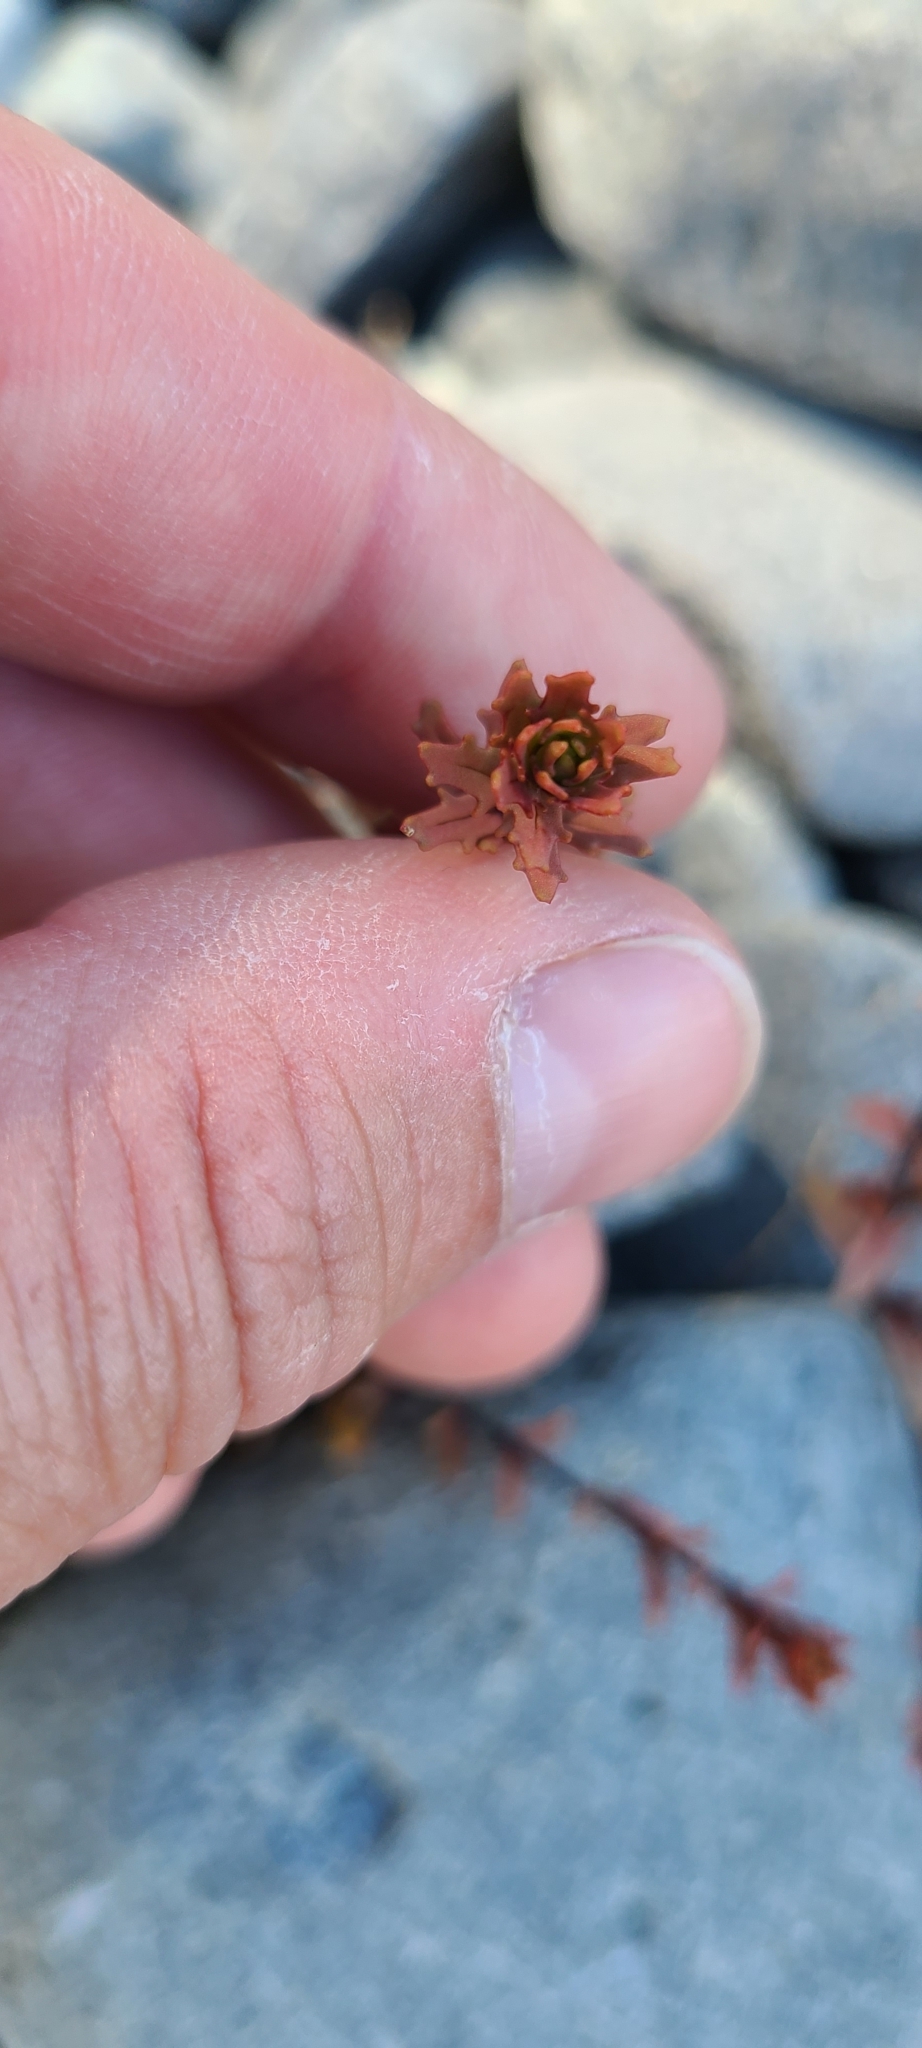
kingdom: Plantae
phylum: Tracheophyta
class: Magnoliopsida
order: Myrtales
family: Onagraceae
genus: Epilobium
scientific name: Epilobium melanocaulon
